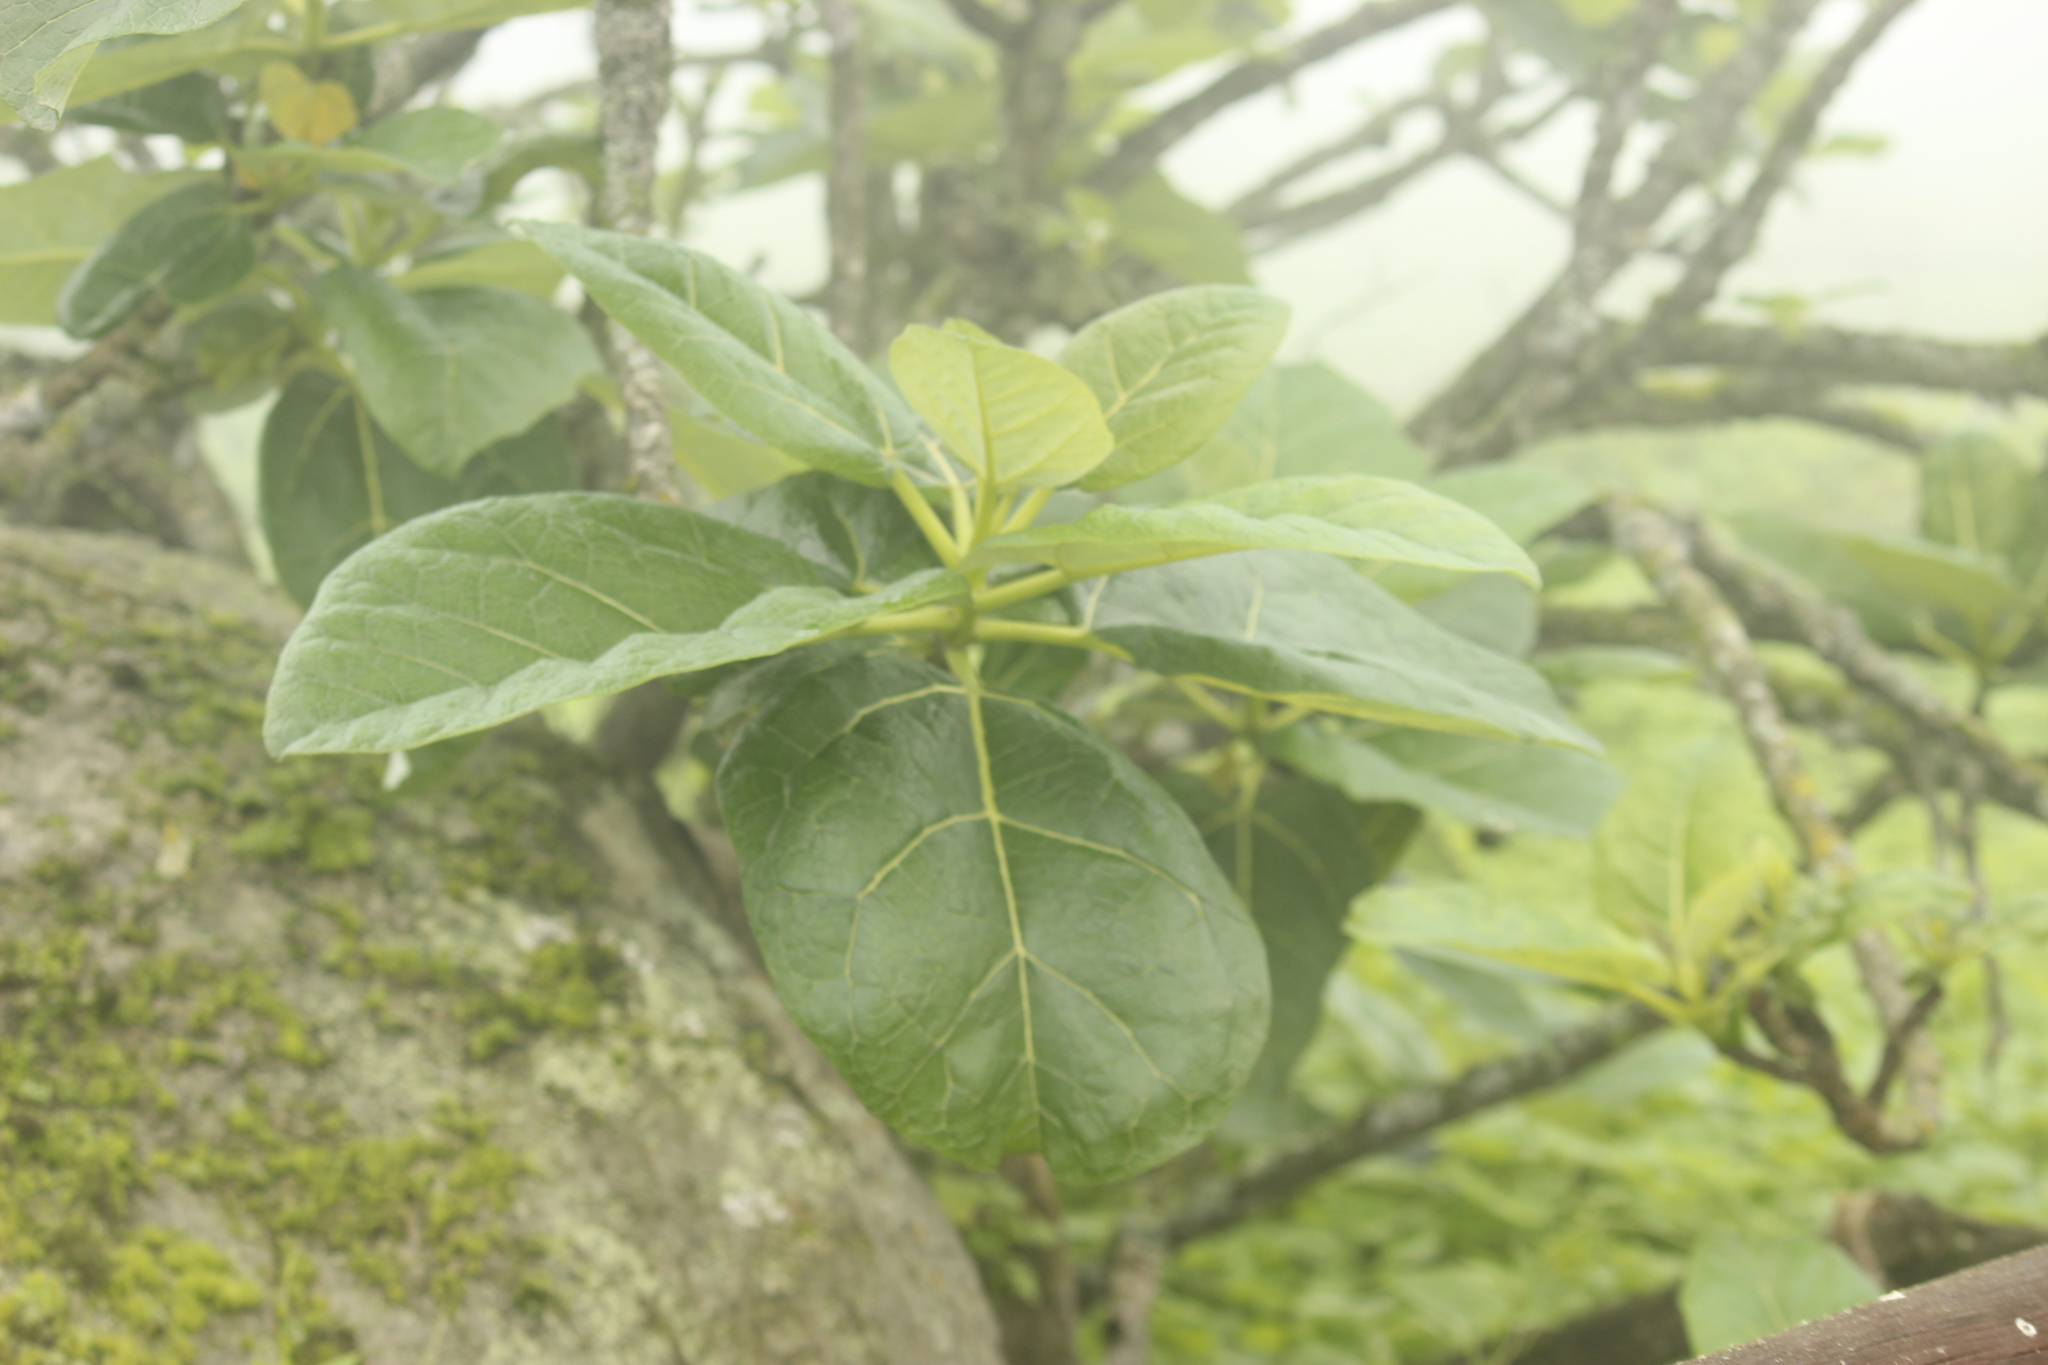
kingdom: Plantae
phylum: Tracheophyta
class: Magnoliopsida
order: Brassicales
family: Caricaceae
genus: Vasconcellea
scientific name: Vasconcellea candicans
